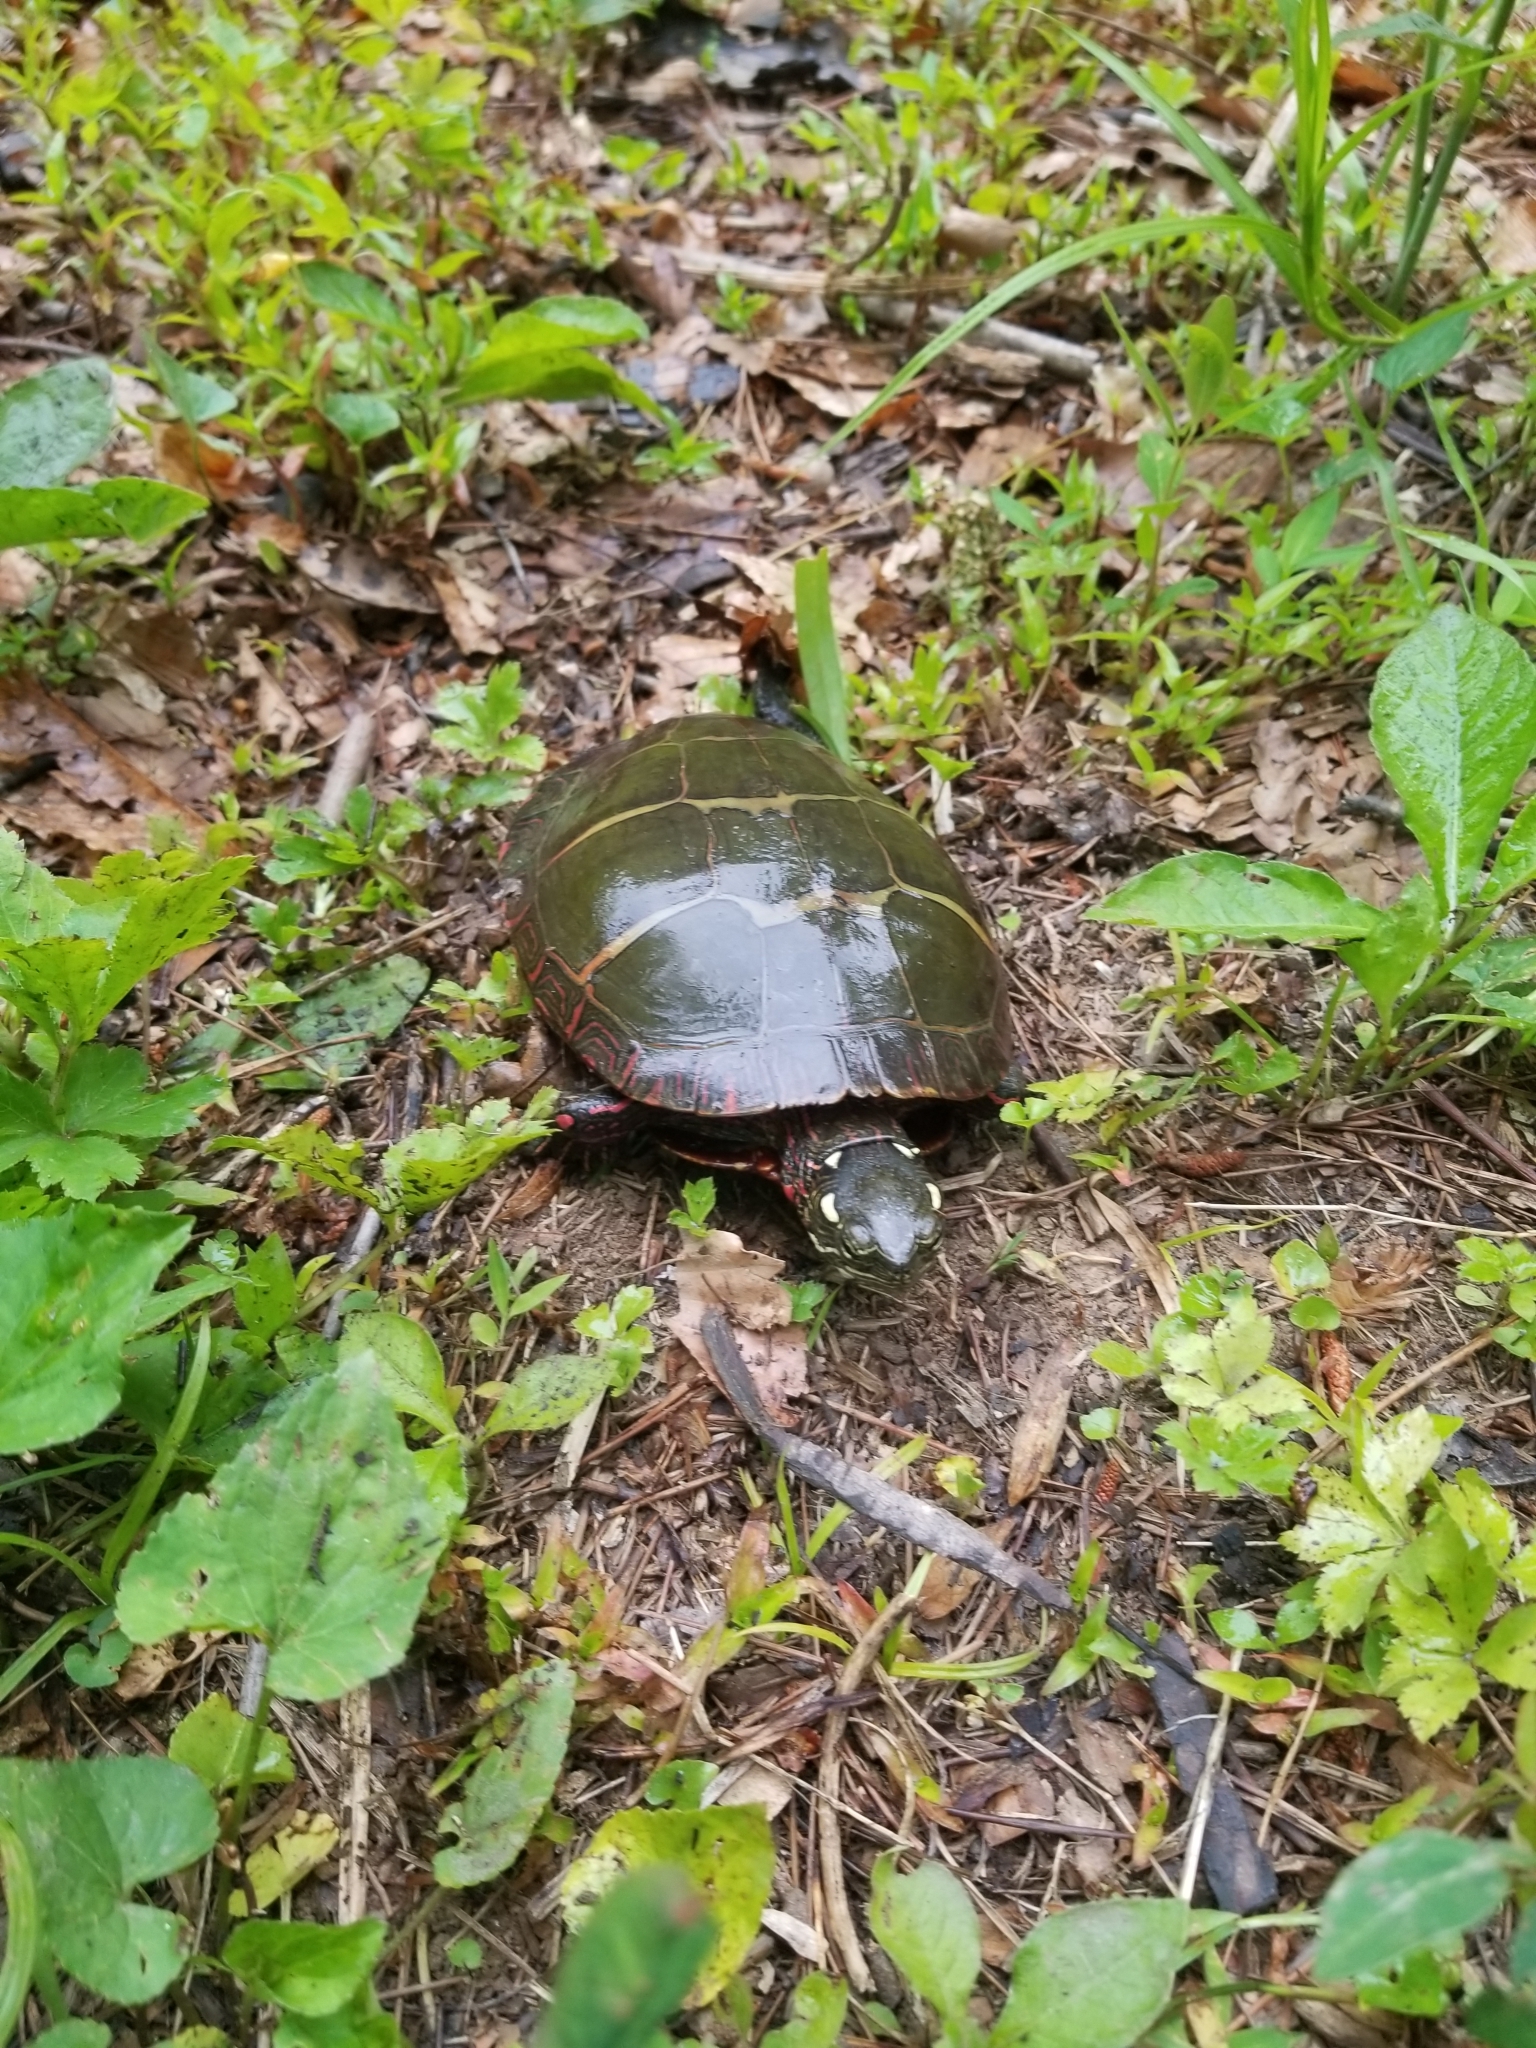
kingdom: Animalia
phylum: Chordata
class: Testudines
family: Emydidae
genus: Chrysemys
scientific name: Chrysemys picta
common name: Painted turtle
